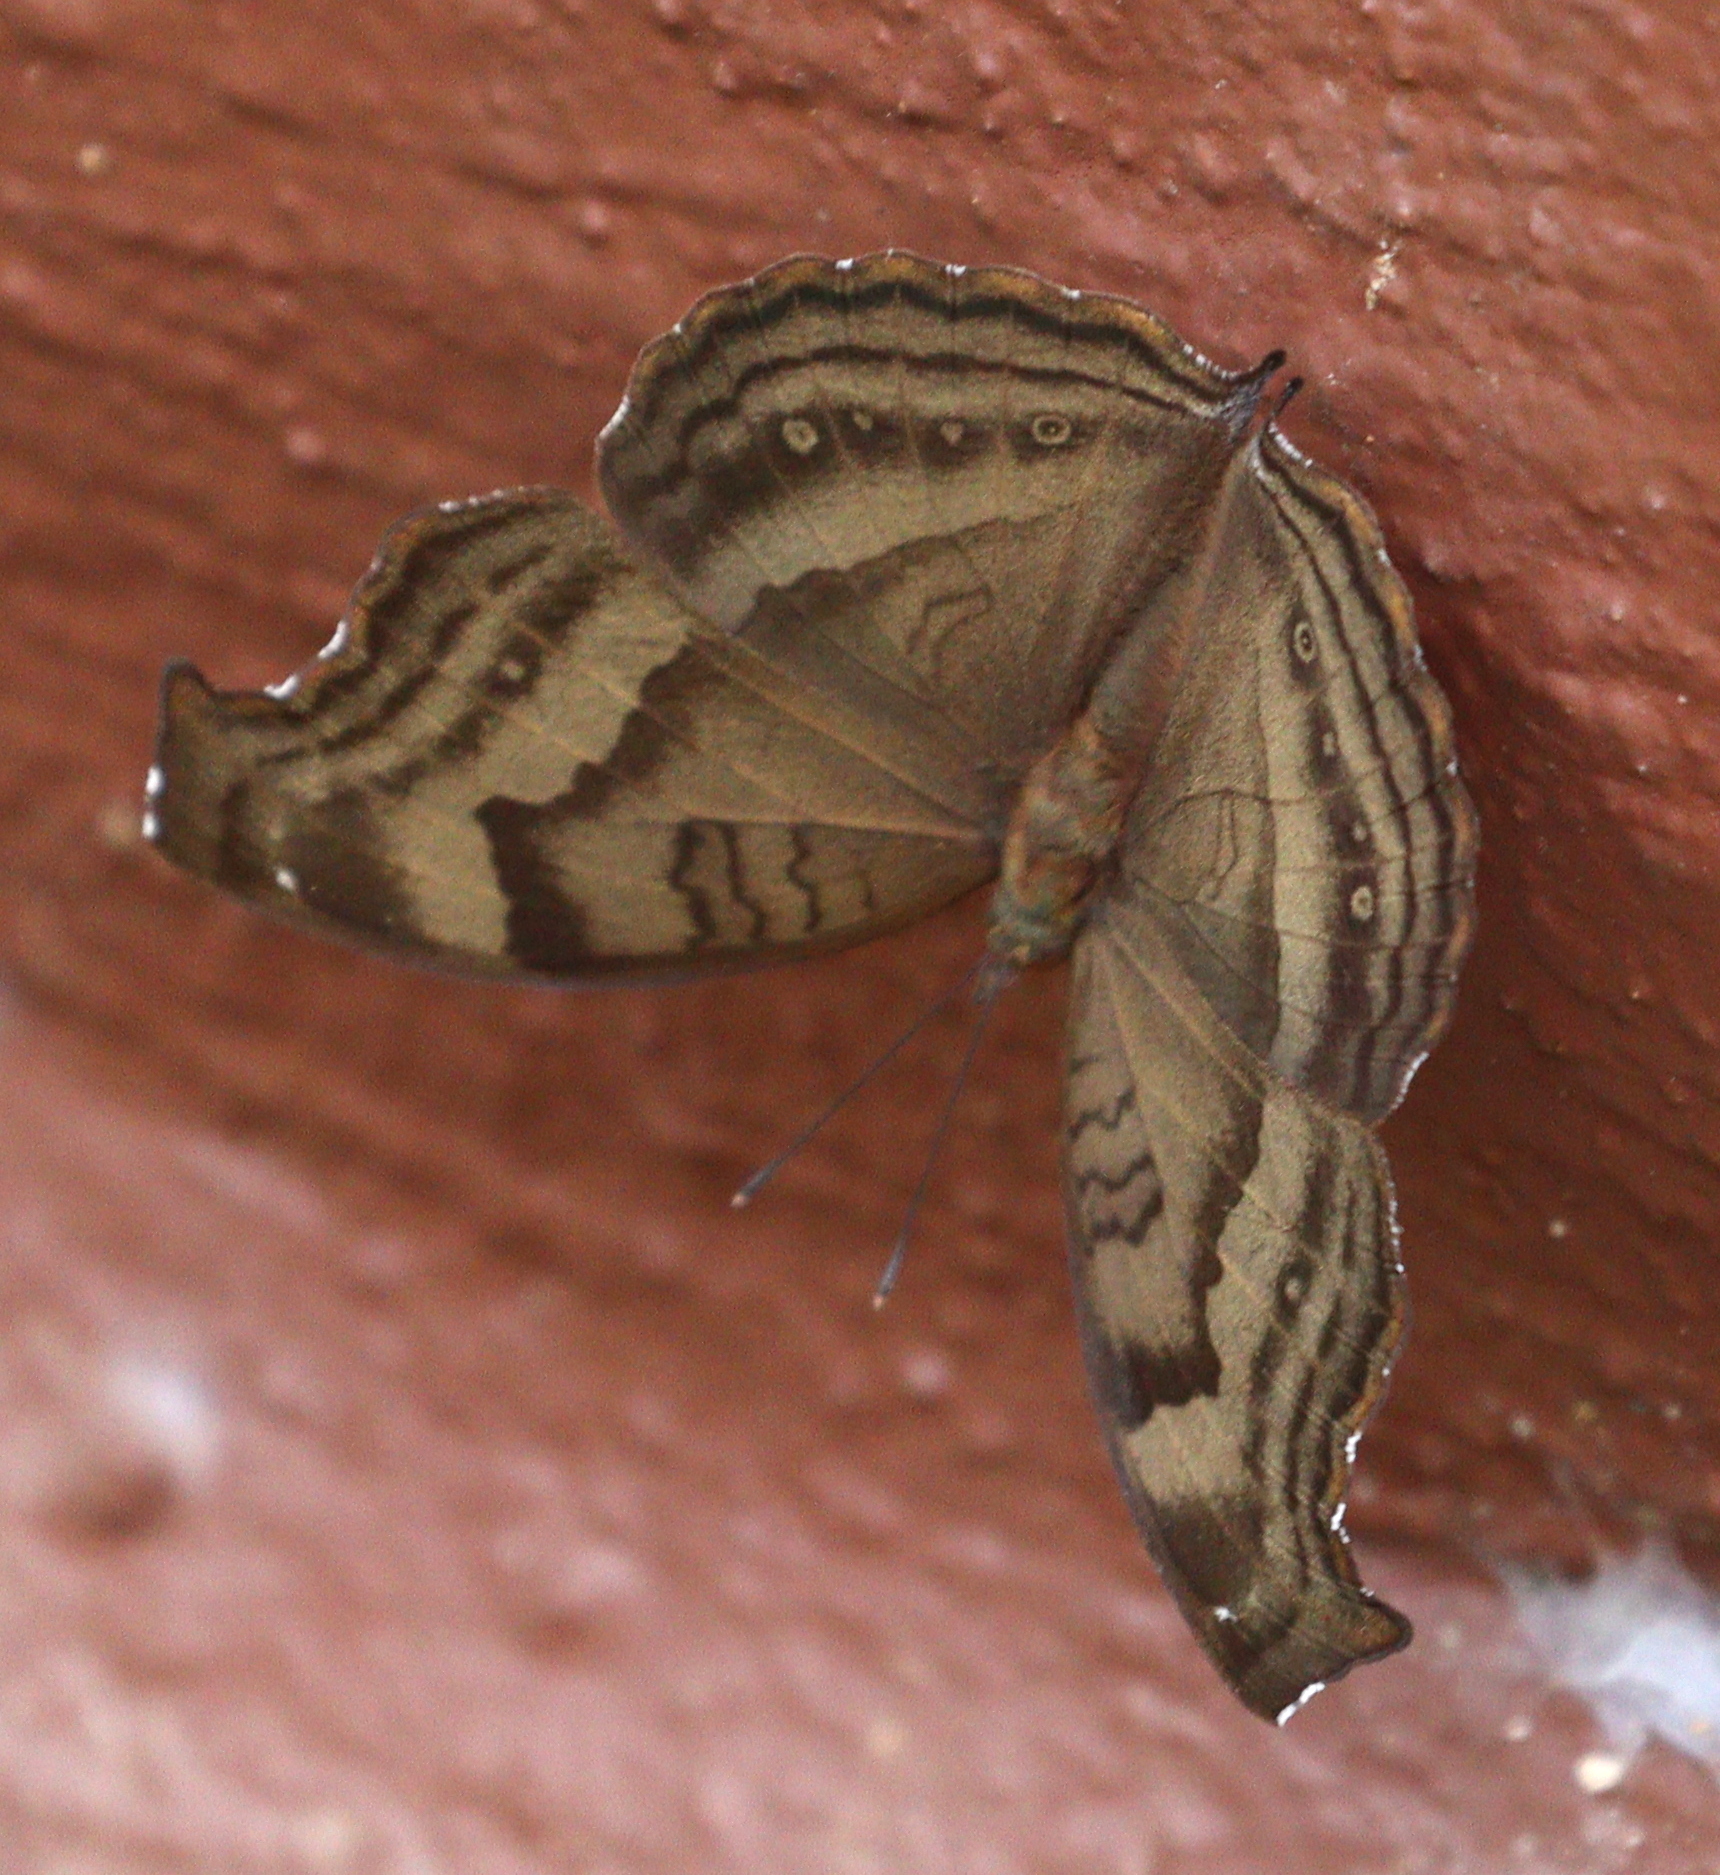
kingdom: Animalia
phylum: Arthropoda
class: Insecta
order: Lepidoptera
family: Nymphalidae
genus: Junonia
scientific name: Junonia iphita
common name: Chocolate pansy
